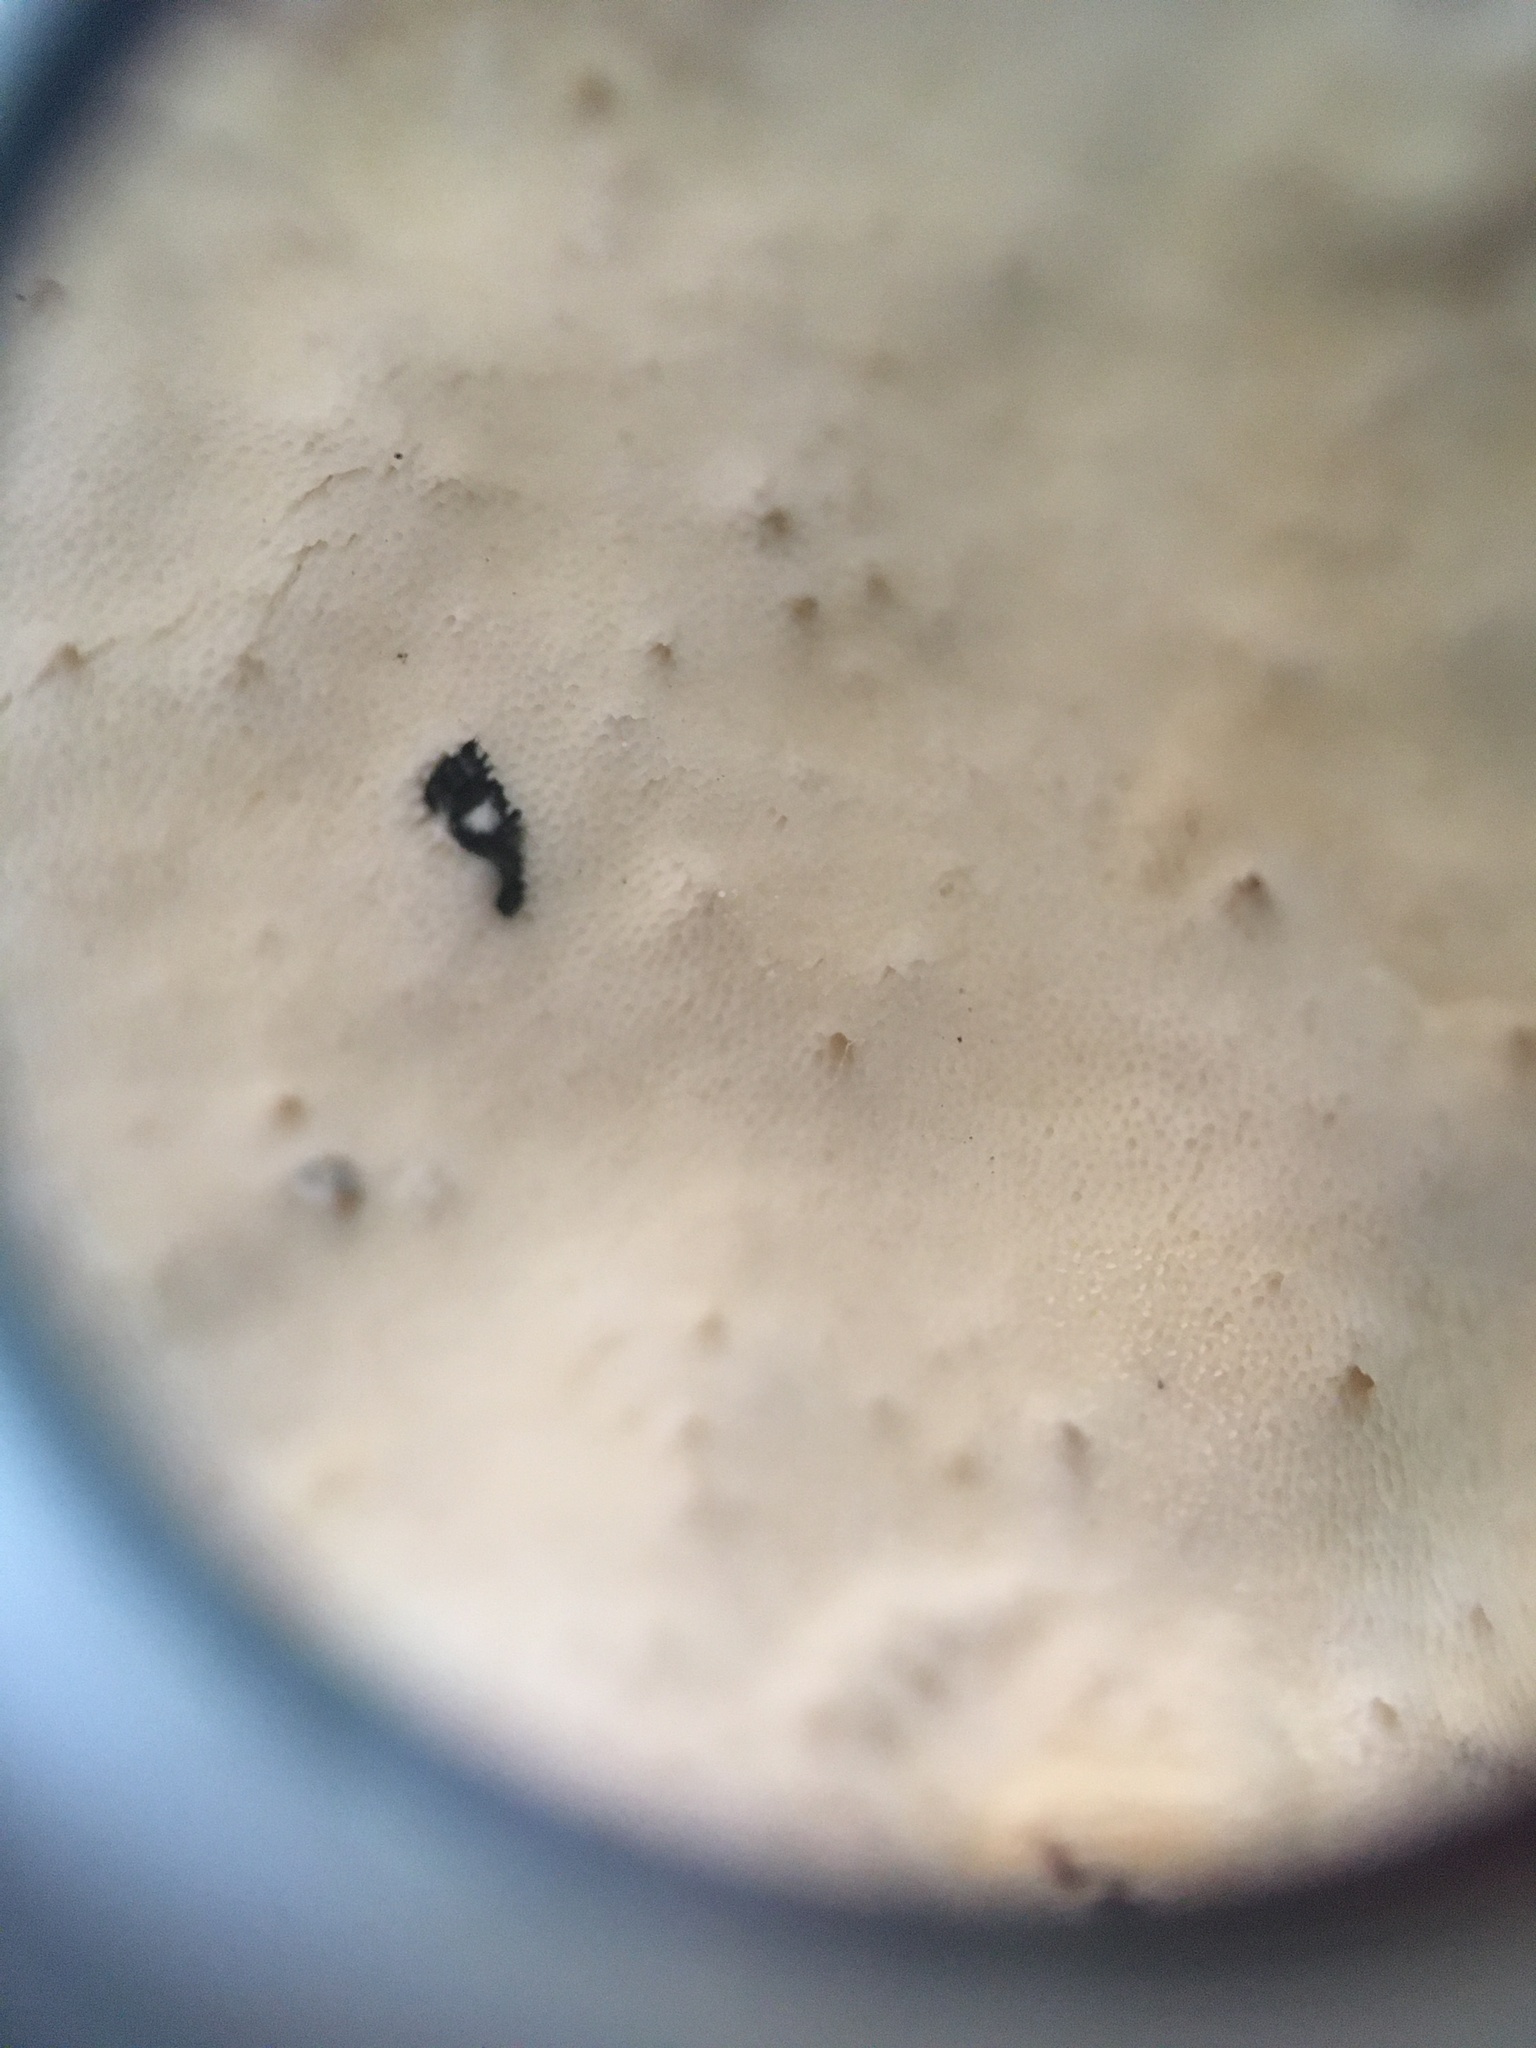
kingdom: Fungi
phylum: Basidiomycota
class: Agaricomycetes
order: Hymenochaetales
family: Oxyporaceae
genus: Oxyporus
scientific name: Oxyporus populinus
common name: Poplar bracket
